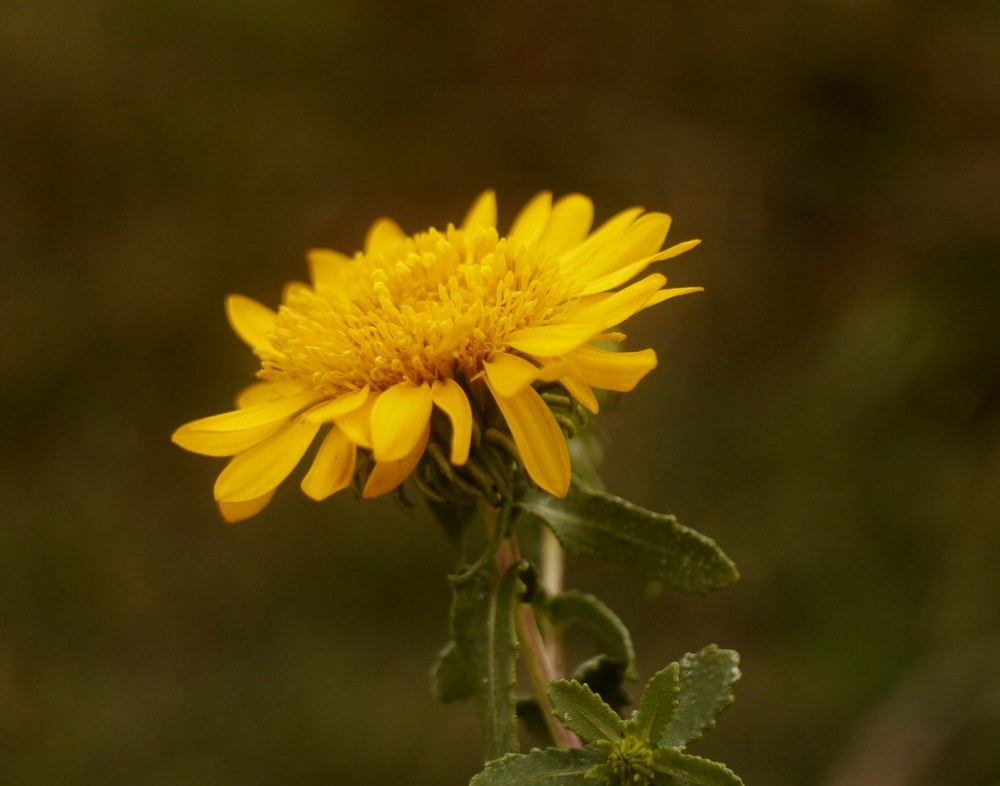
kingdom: Plantae
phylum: Tracheophyta
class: Magnoliopsida
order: Asterales
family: Asteraceae
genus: Grindelia
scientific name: Grindelia squarrosa
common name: Curly-cup gumweed
